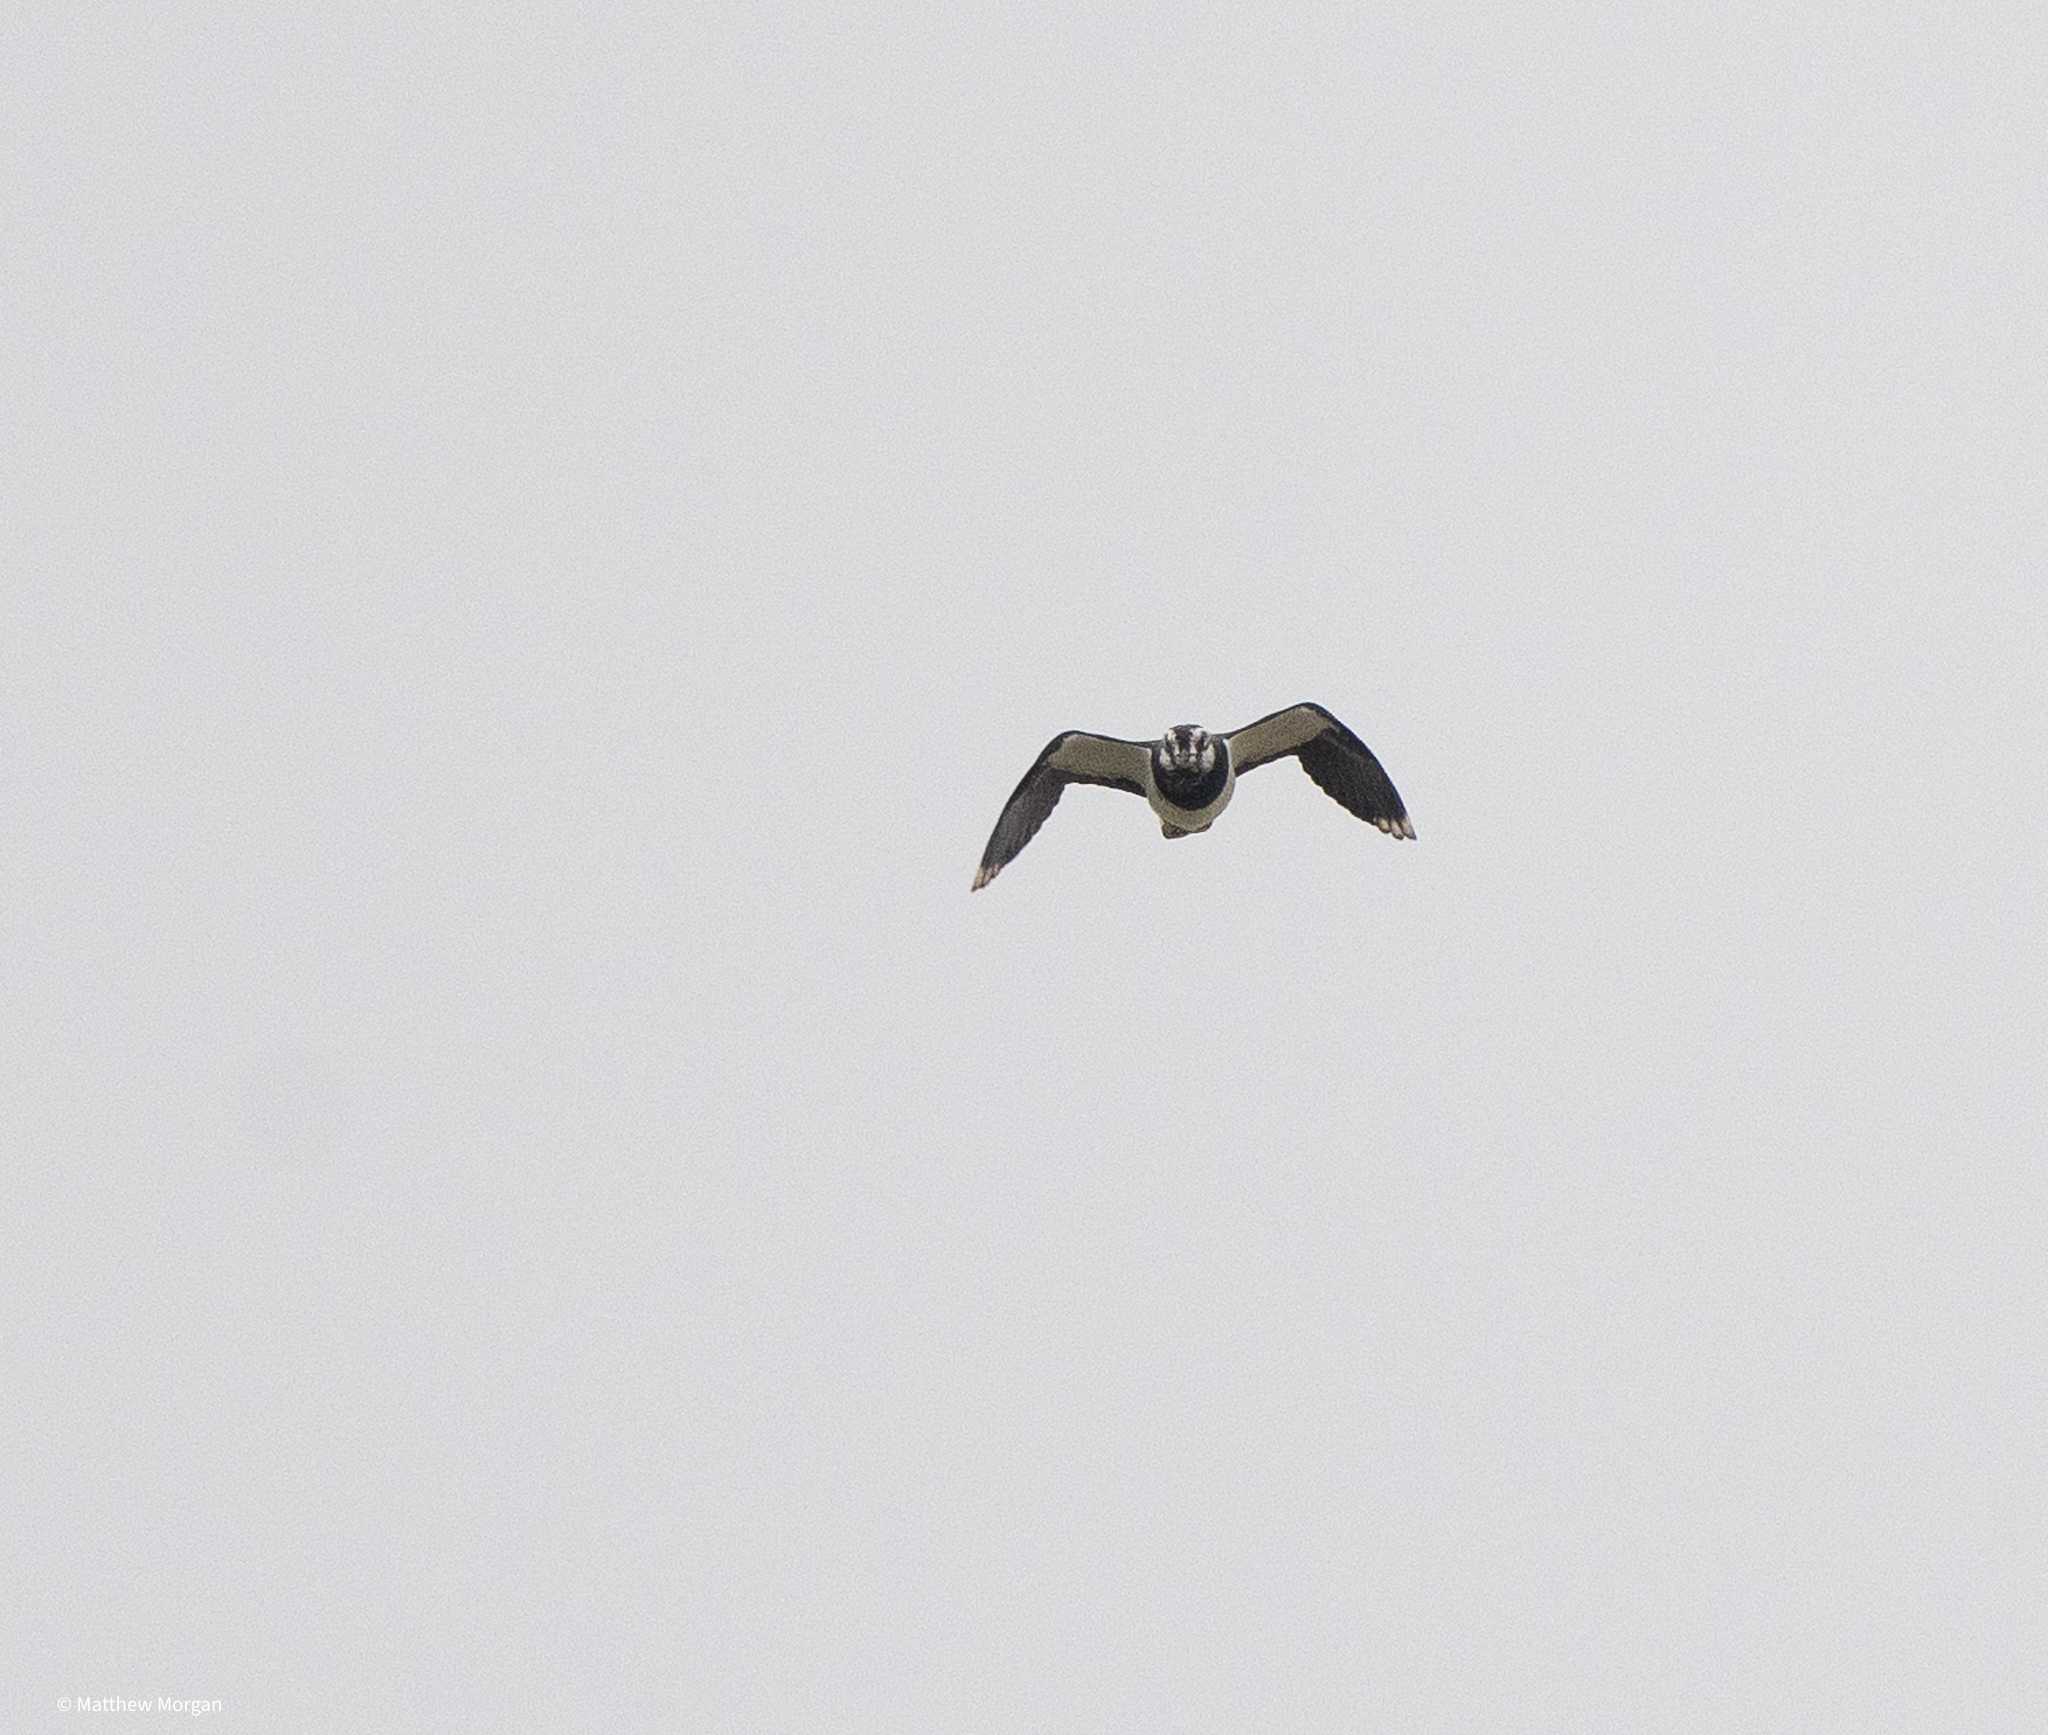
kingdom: Animalia
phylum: Chordata
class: Aves
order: Charadriiformes
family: Charadriidae
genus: Vanellus
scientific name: Vanellus vanellus
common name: Northern lapwing
